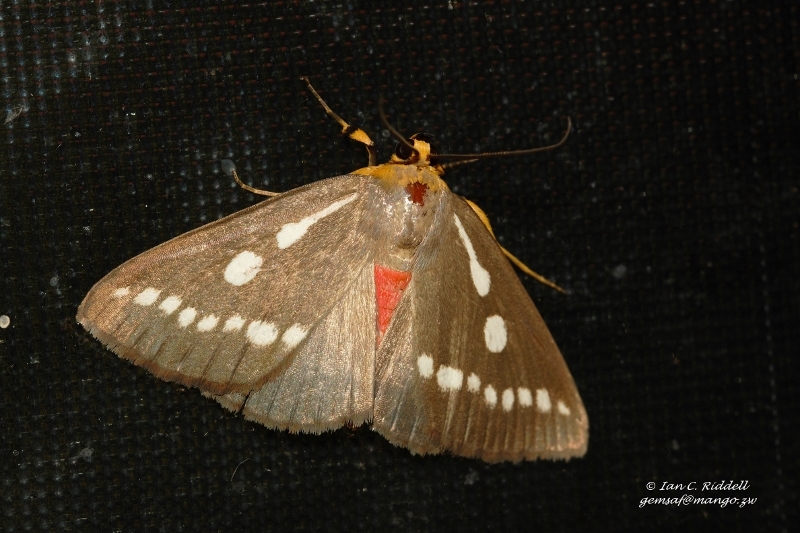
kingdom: Animalia
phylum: Arthropoda
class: Insecta
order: Lepidoptera
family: Erebidae
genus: Calesia
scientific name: Calesia zambesita
